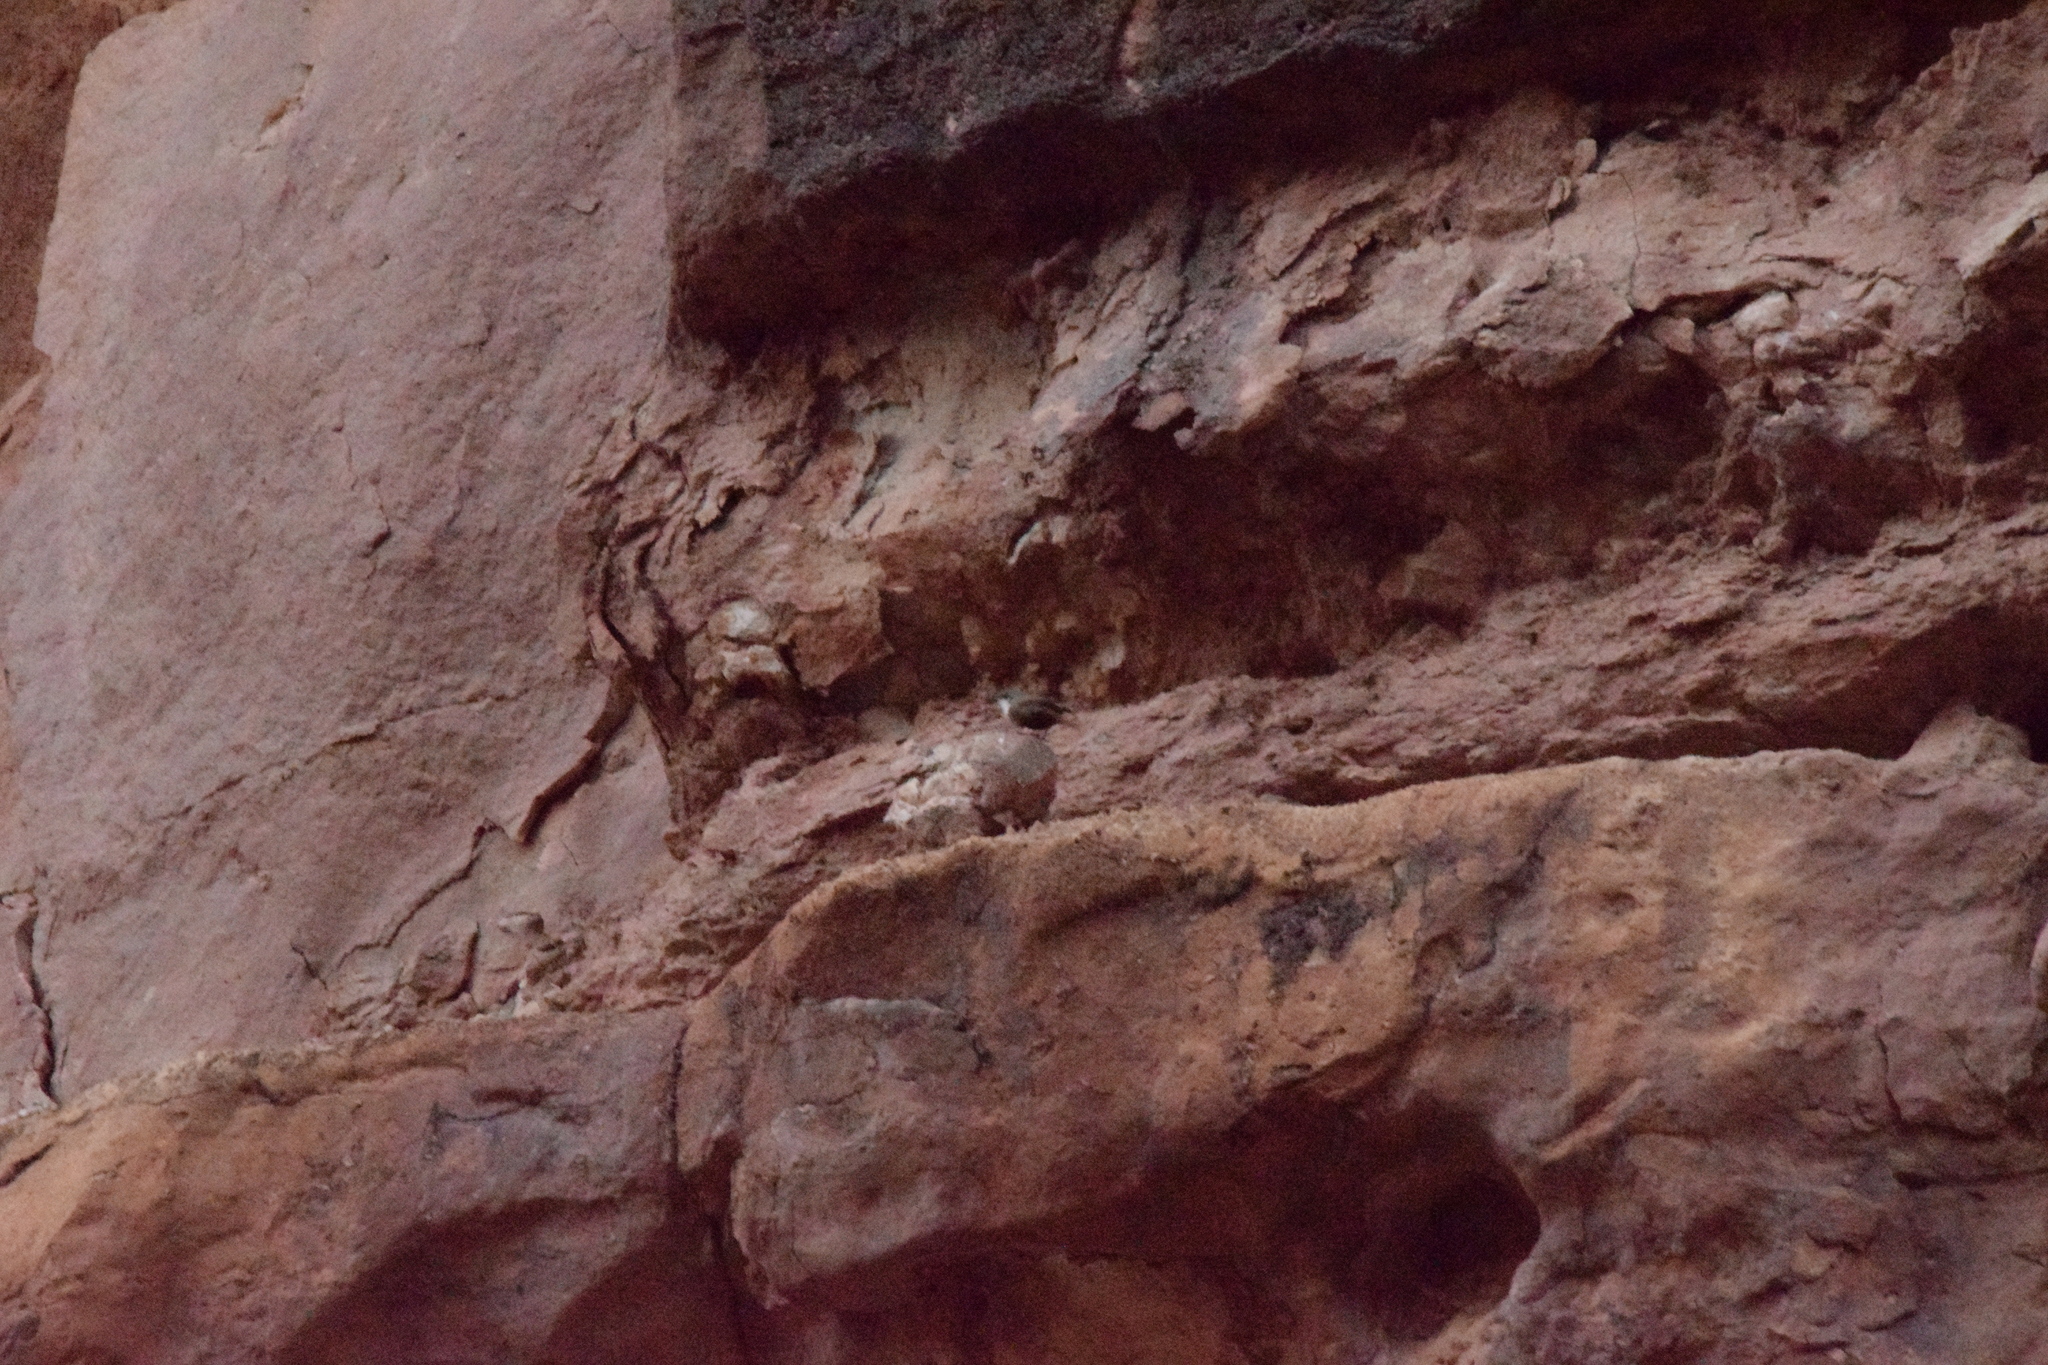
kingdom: Animalia
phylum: Chordata
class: Aves
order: Passeriformes
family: Troglodytidae
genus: Catherpes
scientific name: Catherpes mexicanus
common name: Canyon wren
